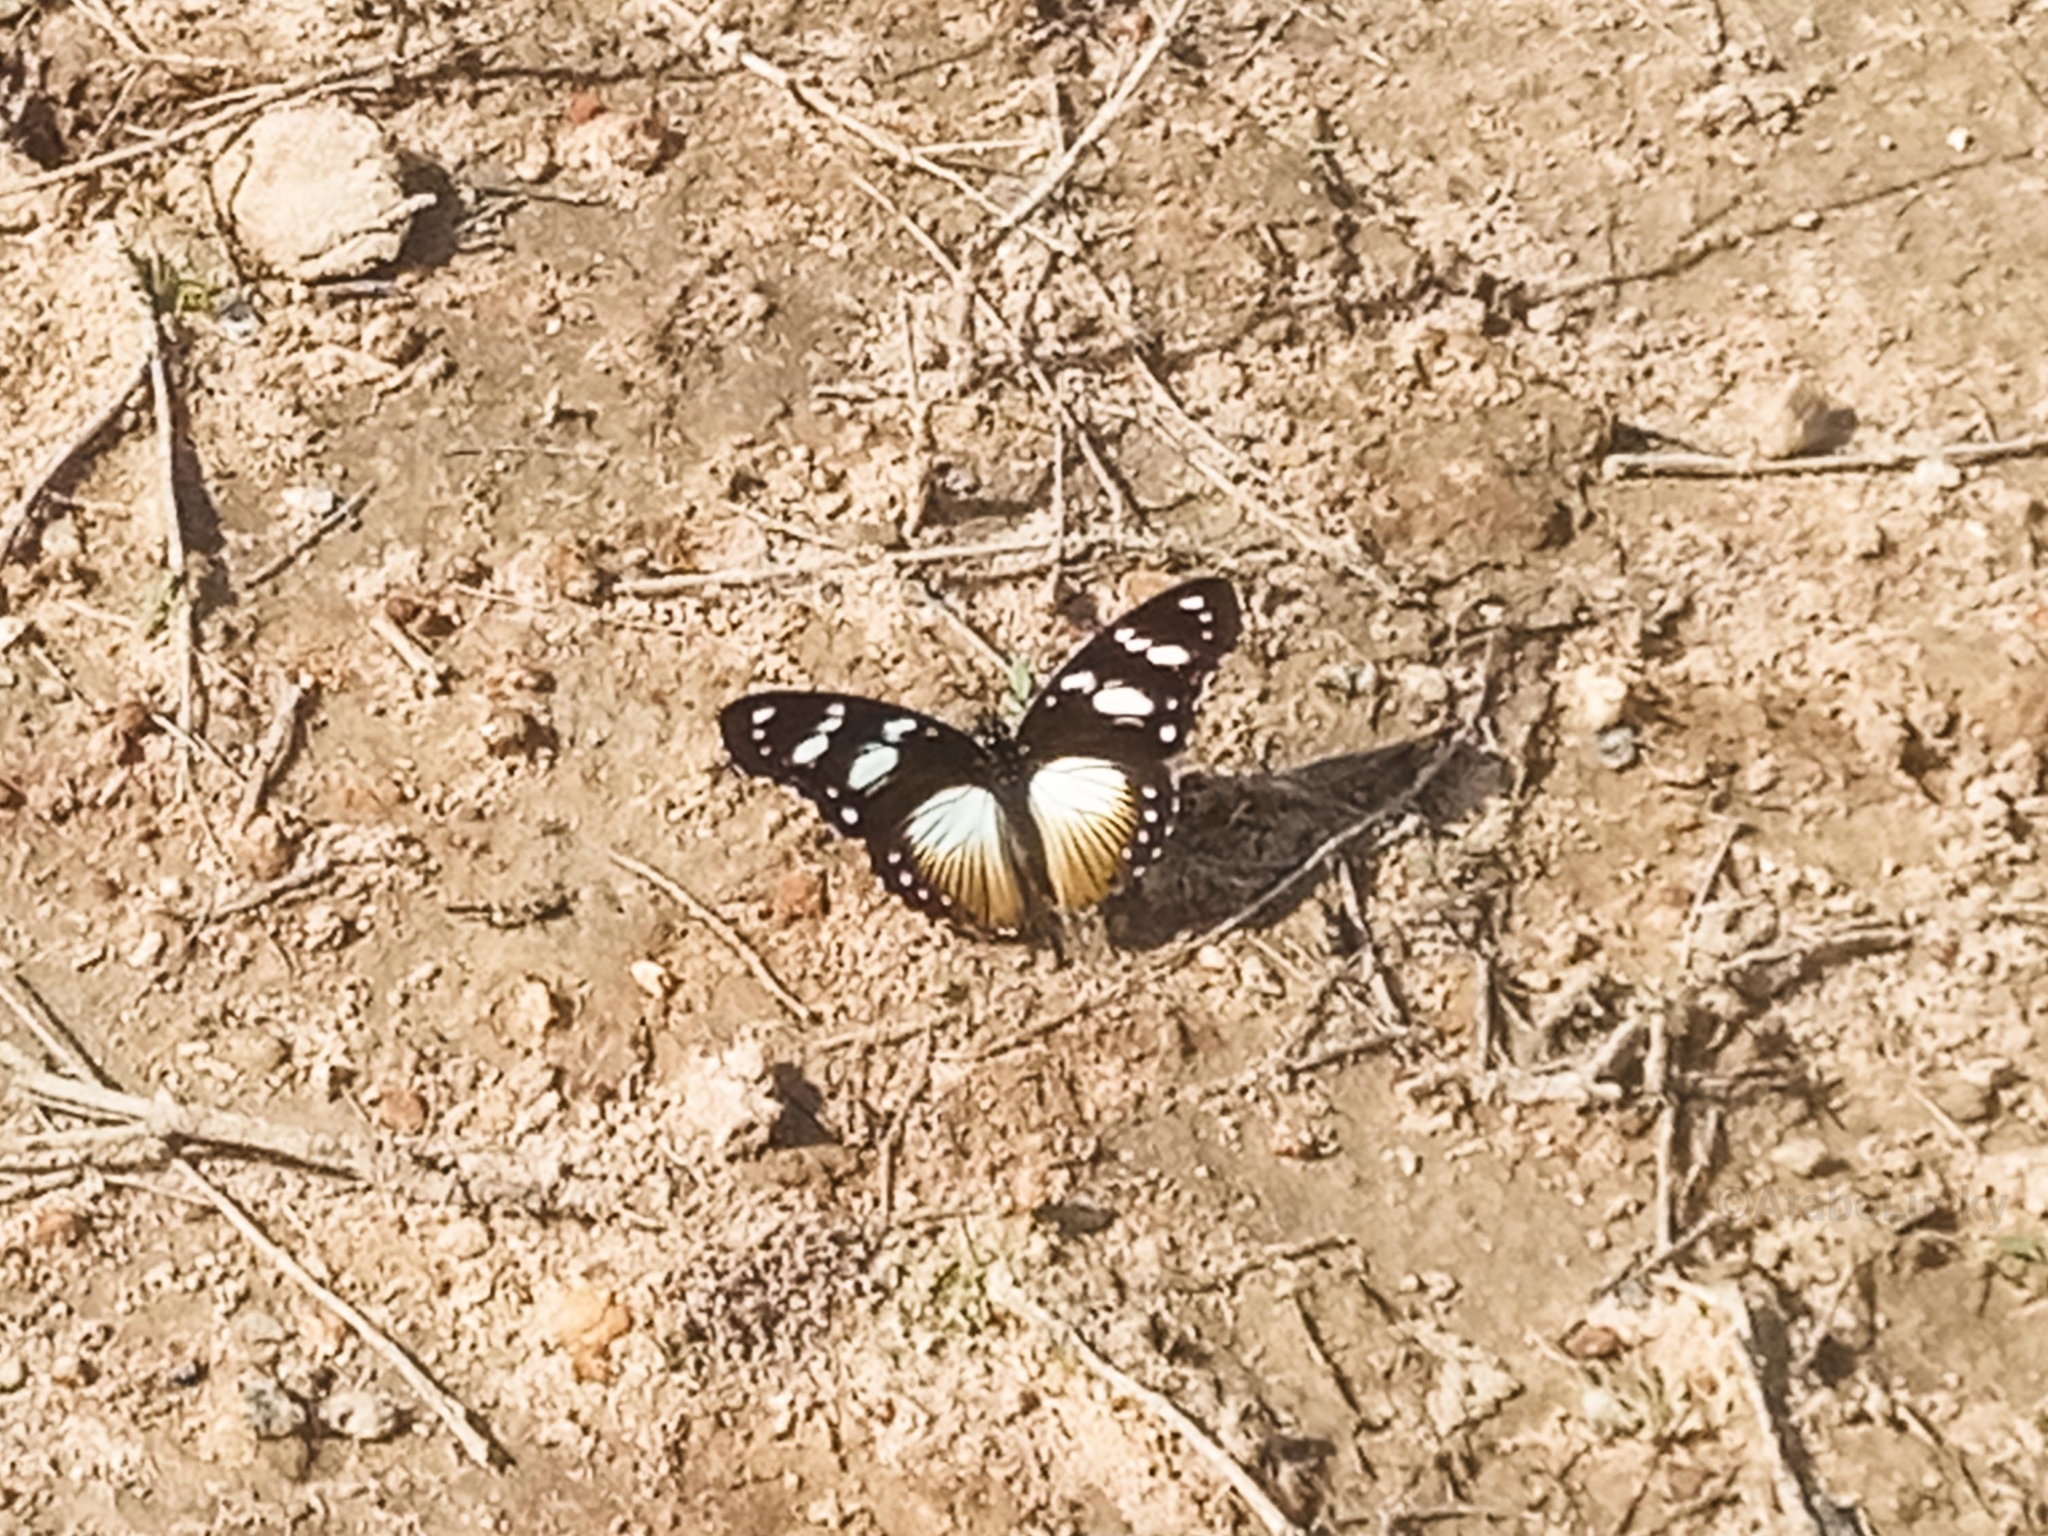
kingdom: Animalia
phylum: Arthropoda
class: Insecta
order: Lepidoptera
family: Nymphalidae
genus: Hypolimnas
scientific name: Hypolimnas dubius
